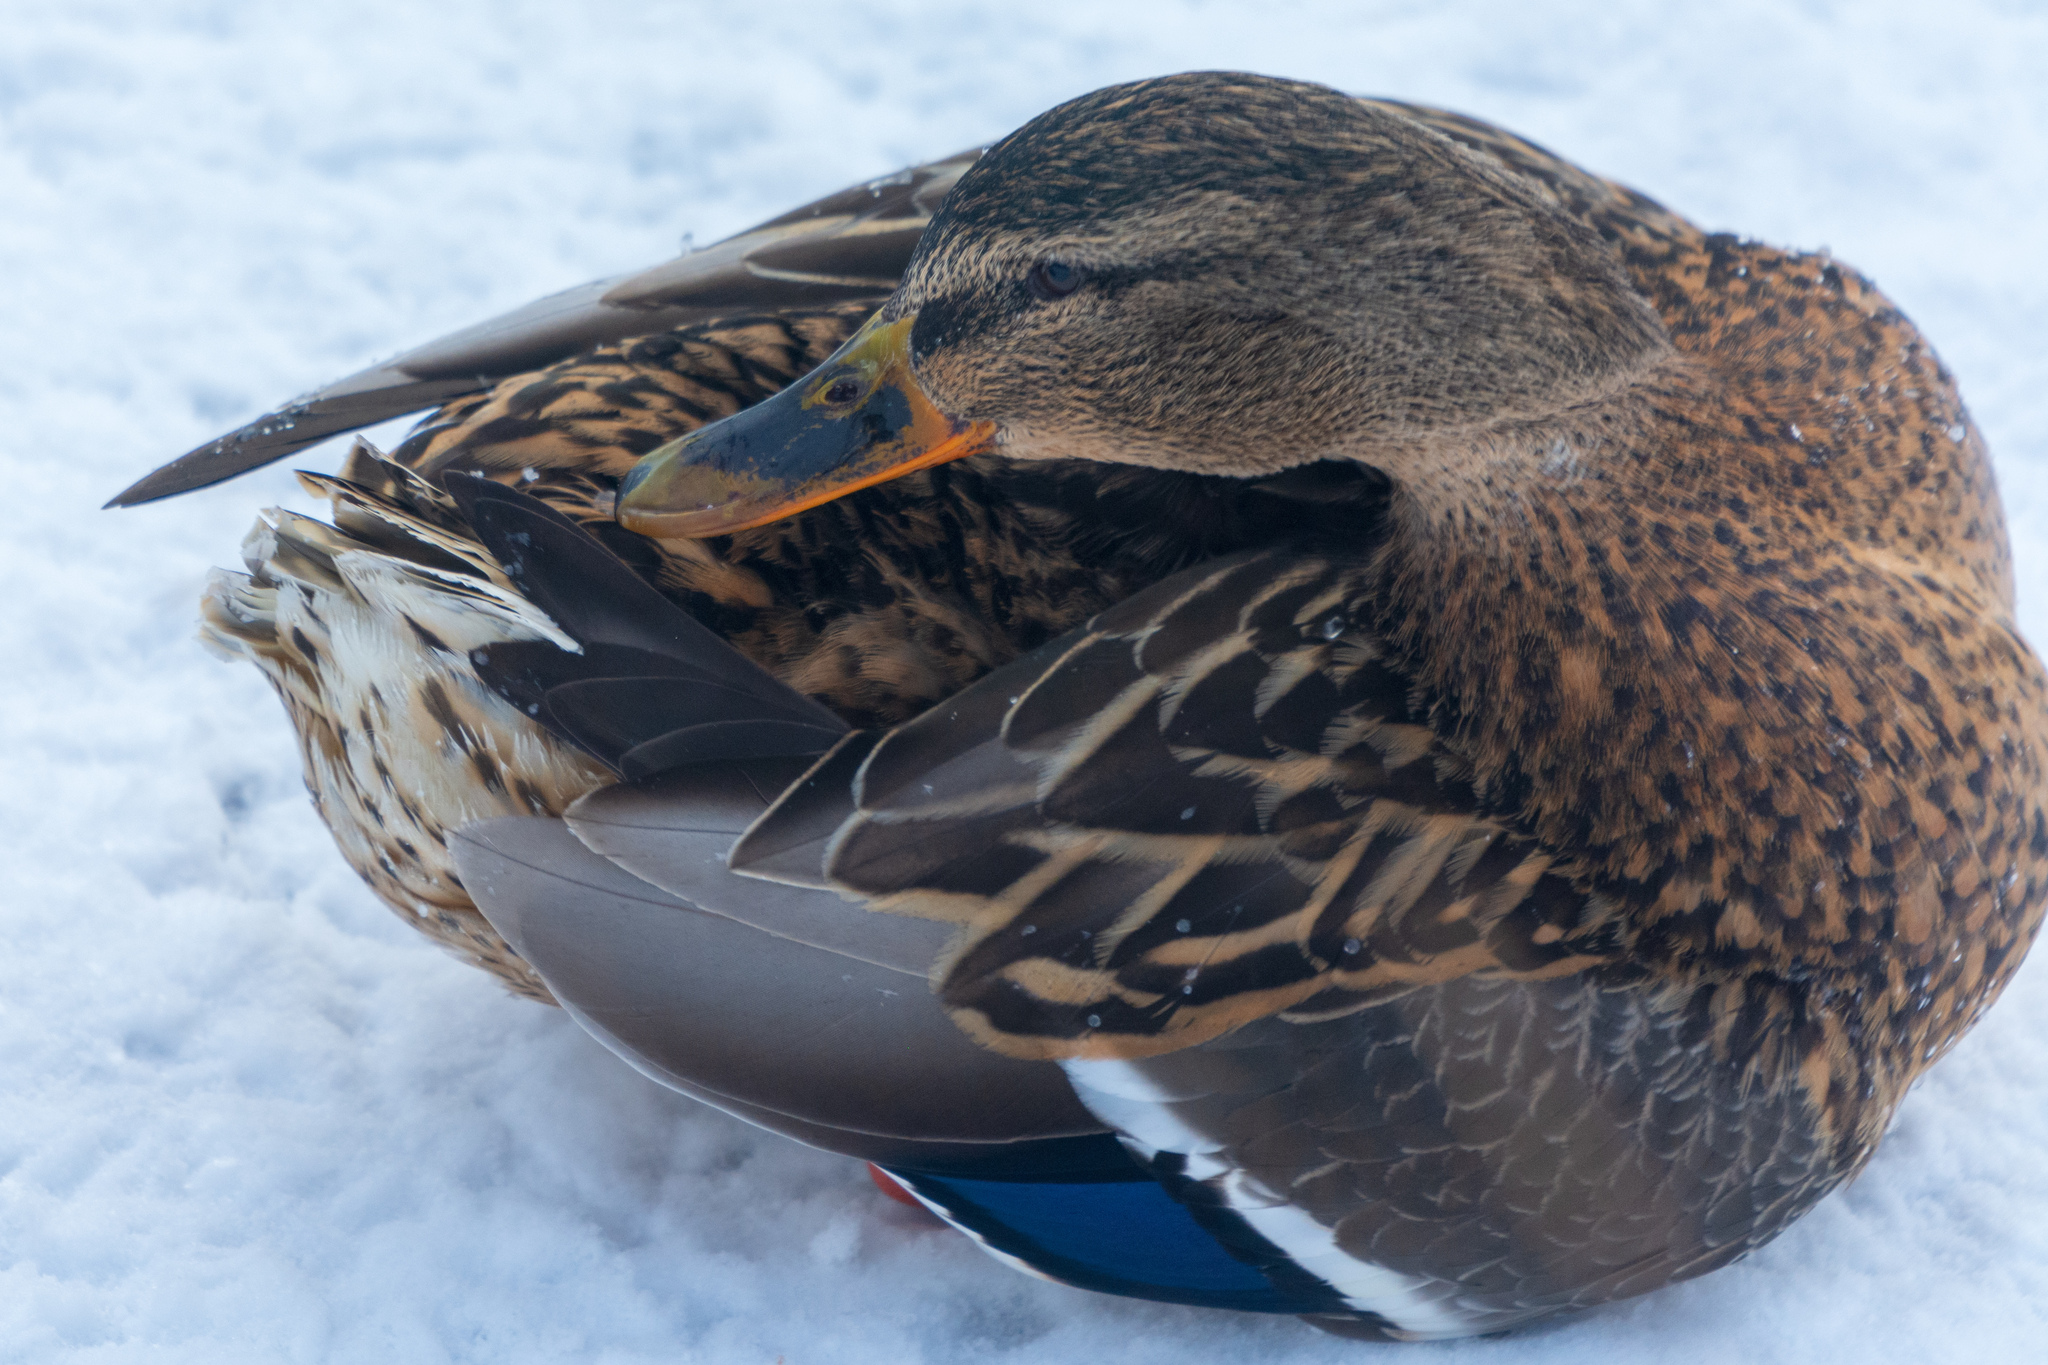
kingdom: Animalia
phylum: Chordata
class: Aves
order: Anseriformes
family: Anatidae
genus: Anas
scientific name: Anas platyrhynchos
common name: Mallard
